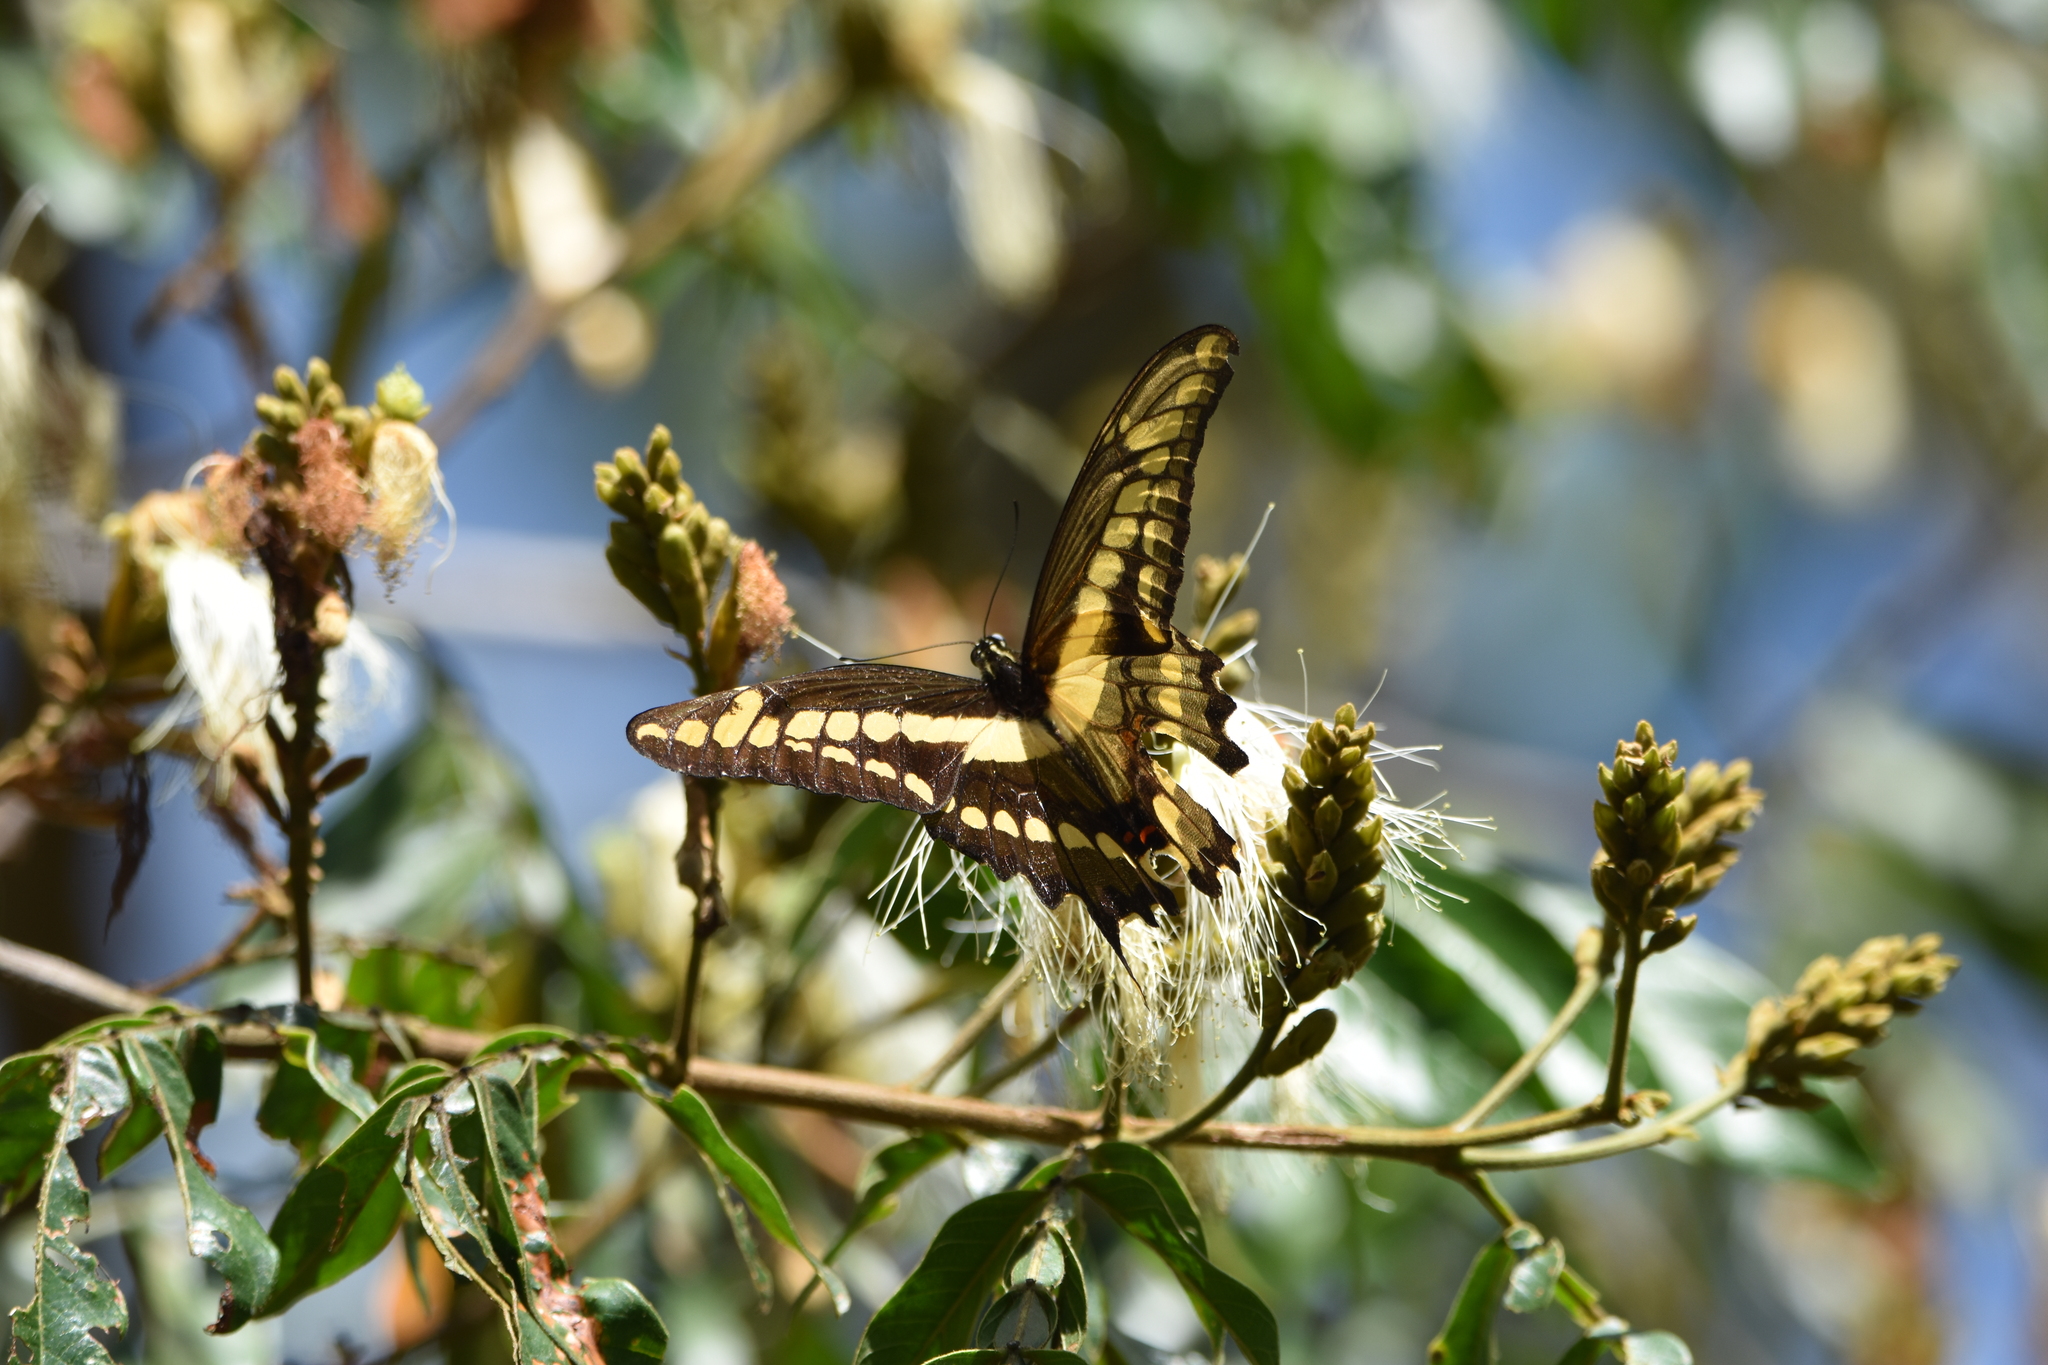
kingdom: Animalia
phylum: Arthropoda
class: Insecta
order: Lepidoptera
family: Papilionidae
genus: Papilio
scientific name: Papilio thoas
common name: King swallowtail
